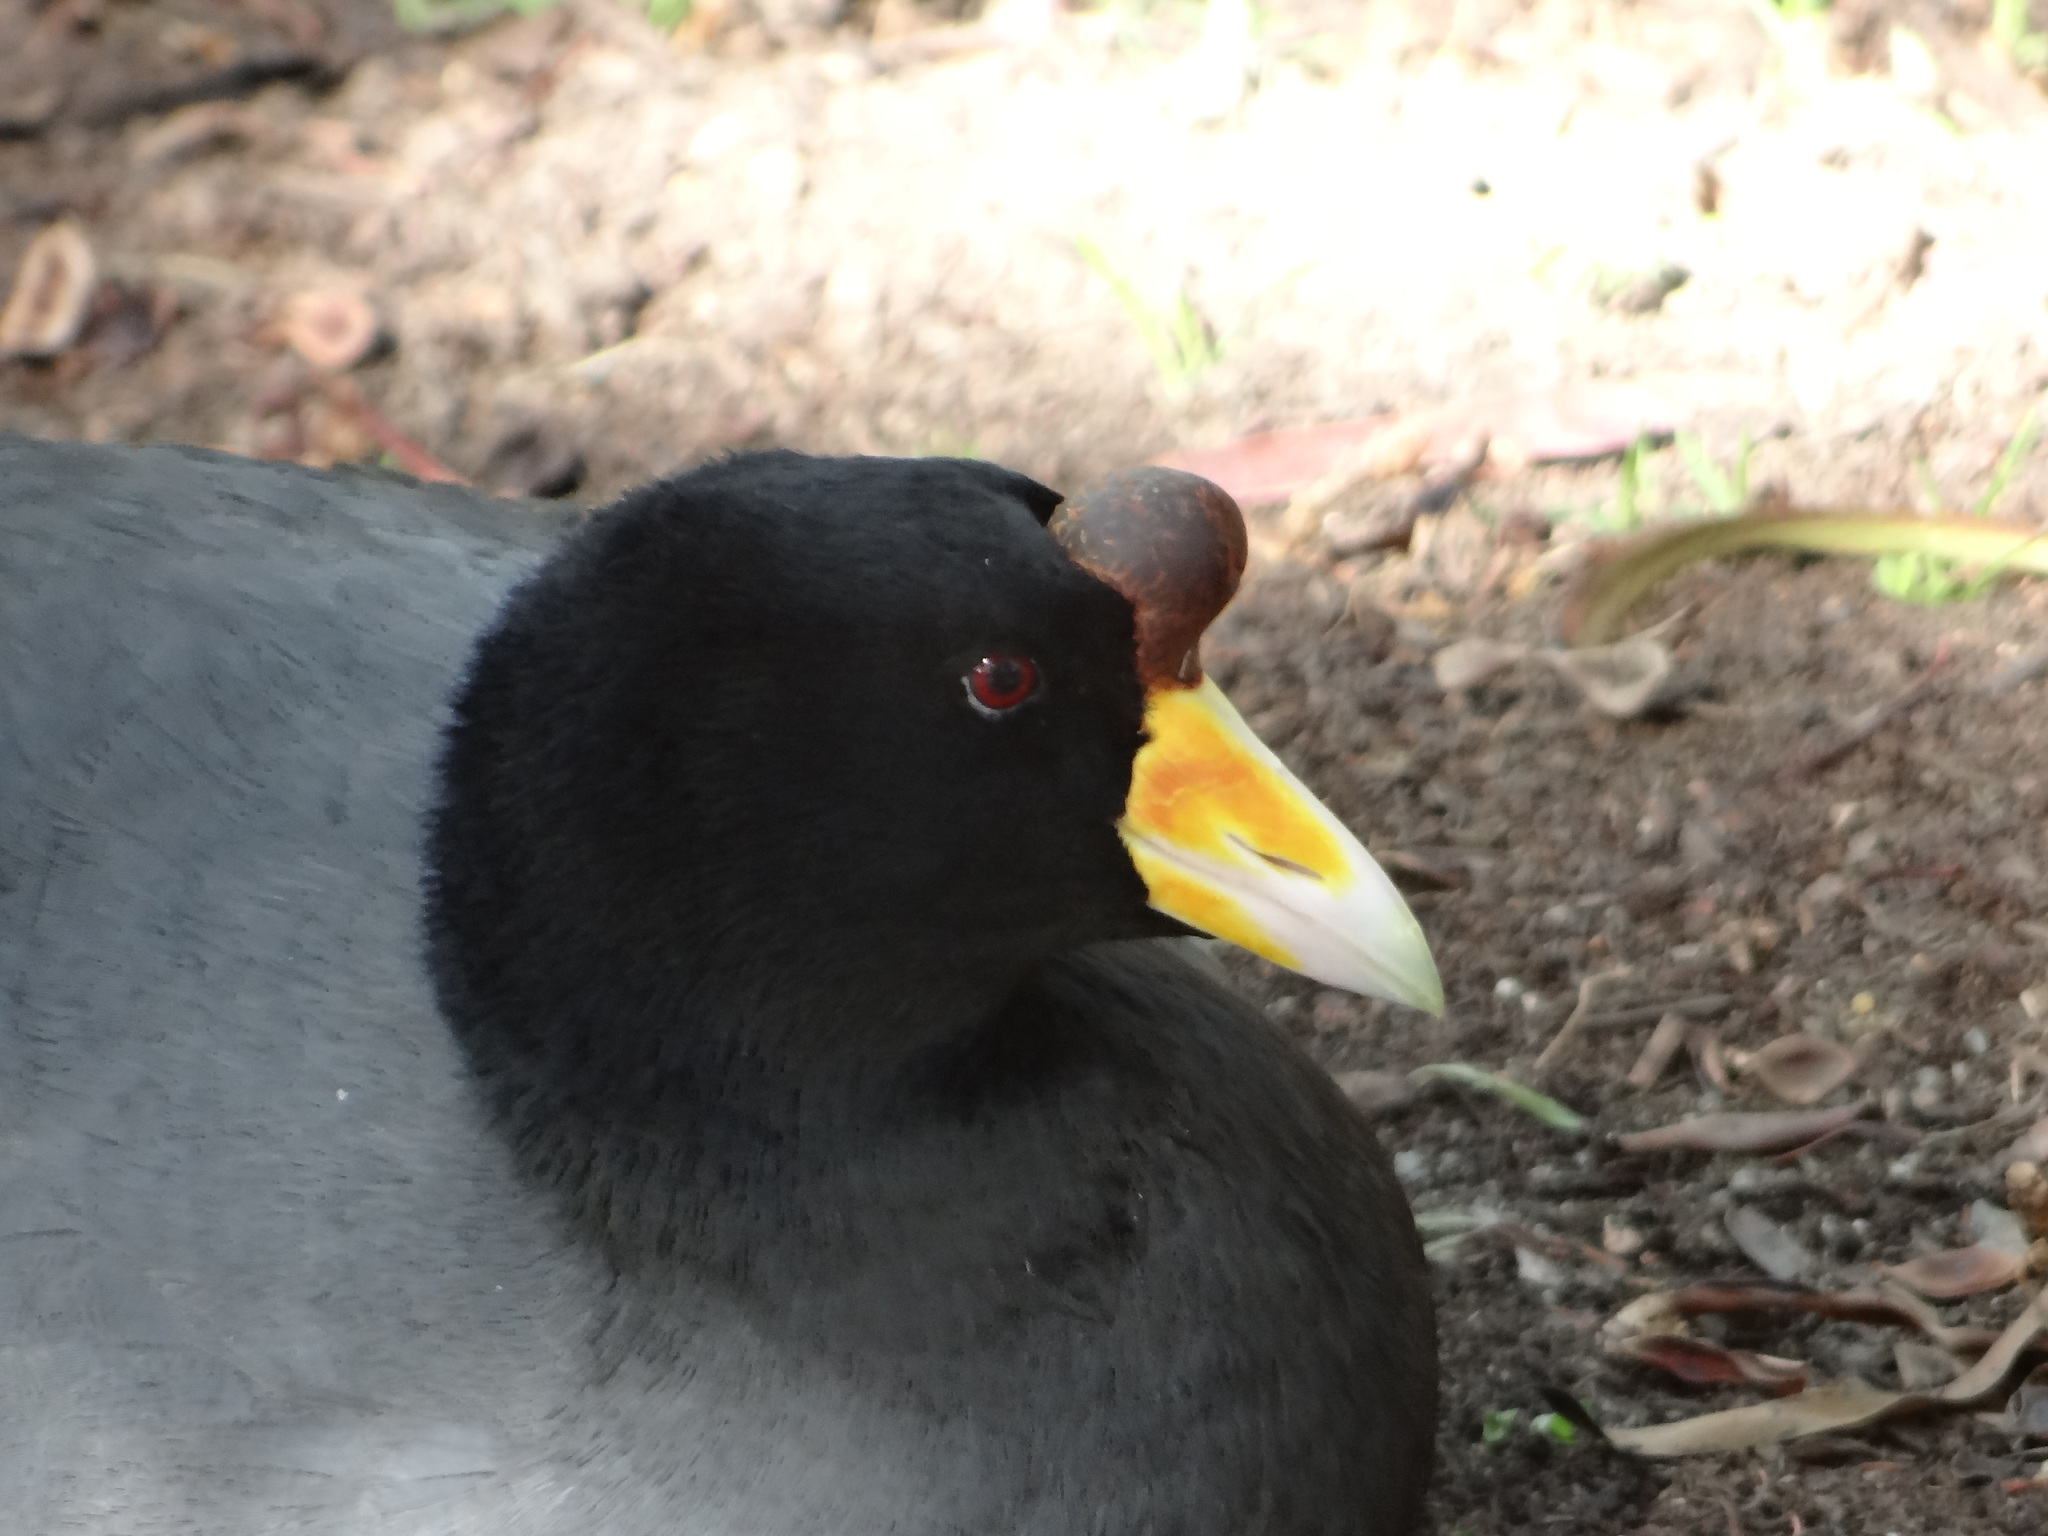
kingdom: Animalia
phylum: Chordata
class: Aves
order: Gruiformes
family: Rallidae
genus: Fulica
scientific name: Fulica ardesiaca
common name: Andean coot
